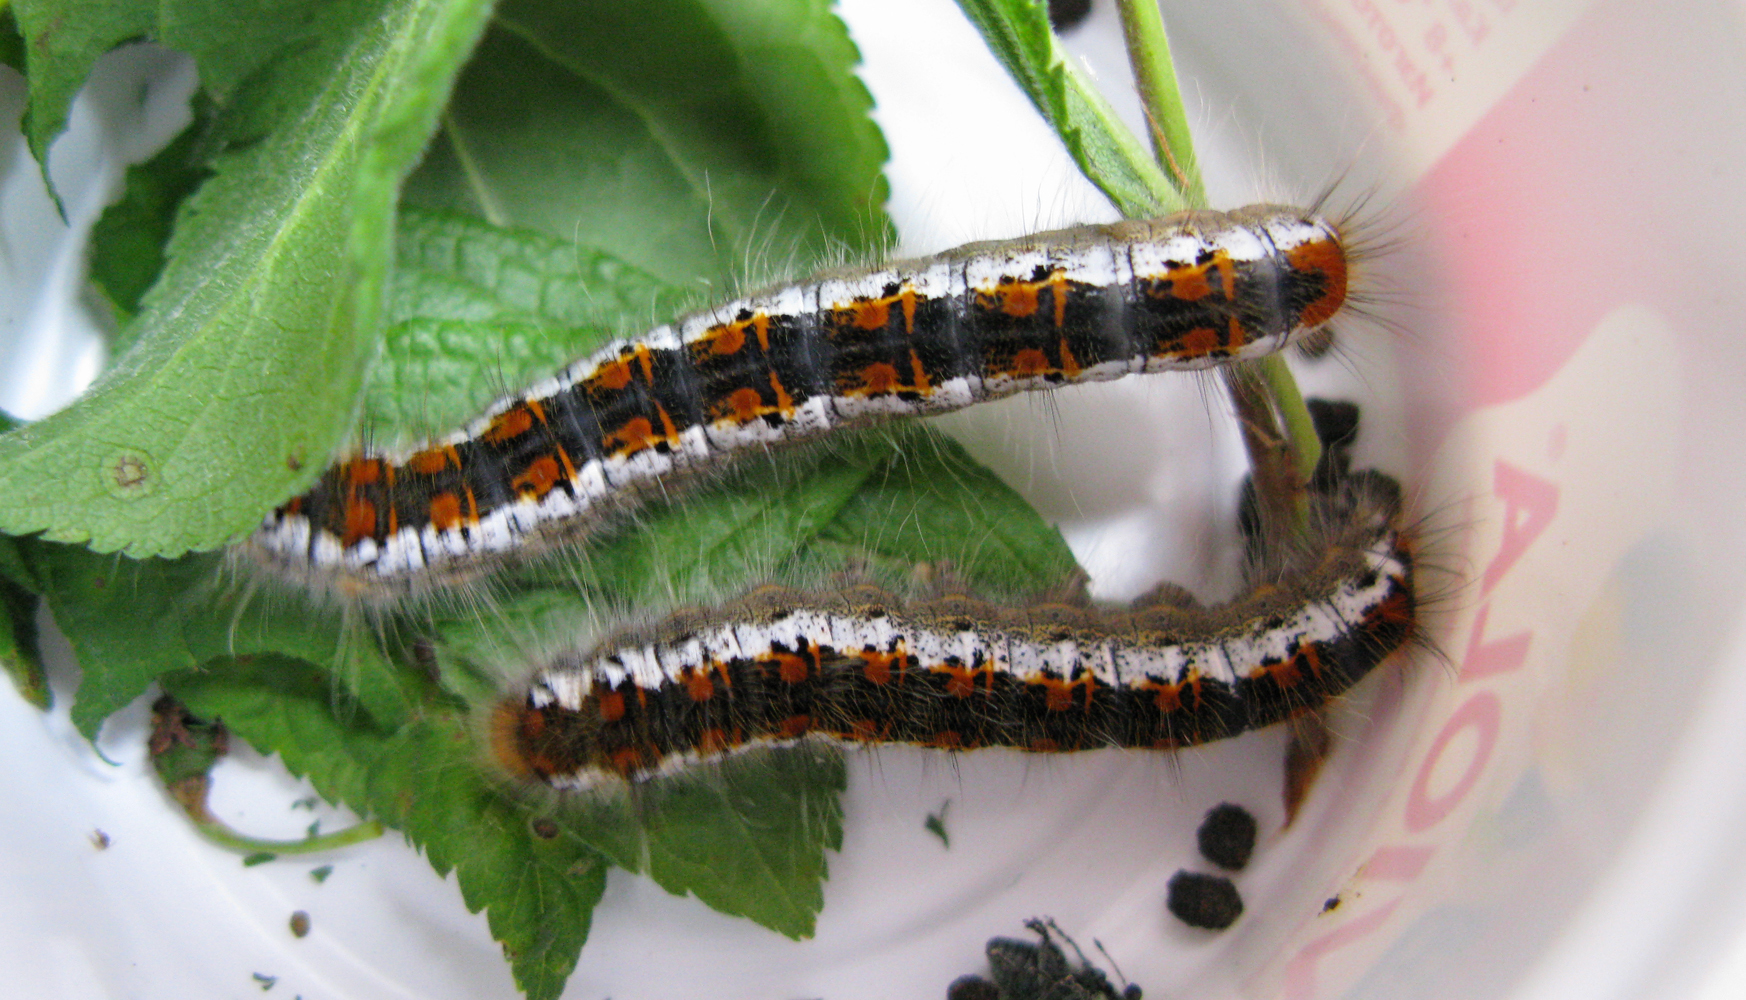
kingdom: Animalia
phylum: Arthropoda
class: Insecta
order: Lepidoptera
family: Lasiocampidae
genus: Trichiura
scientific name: Trichiura crataegi
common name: Pale eggar
